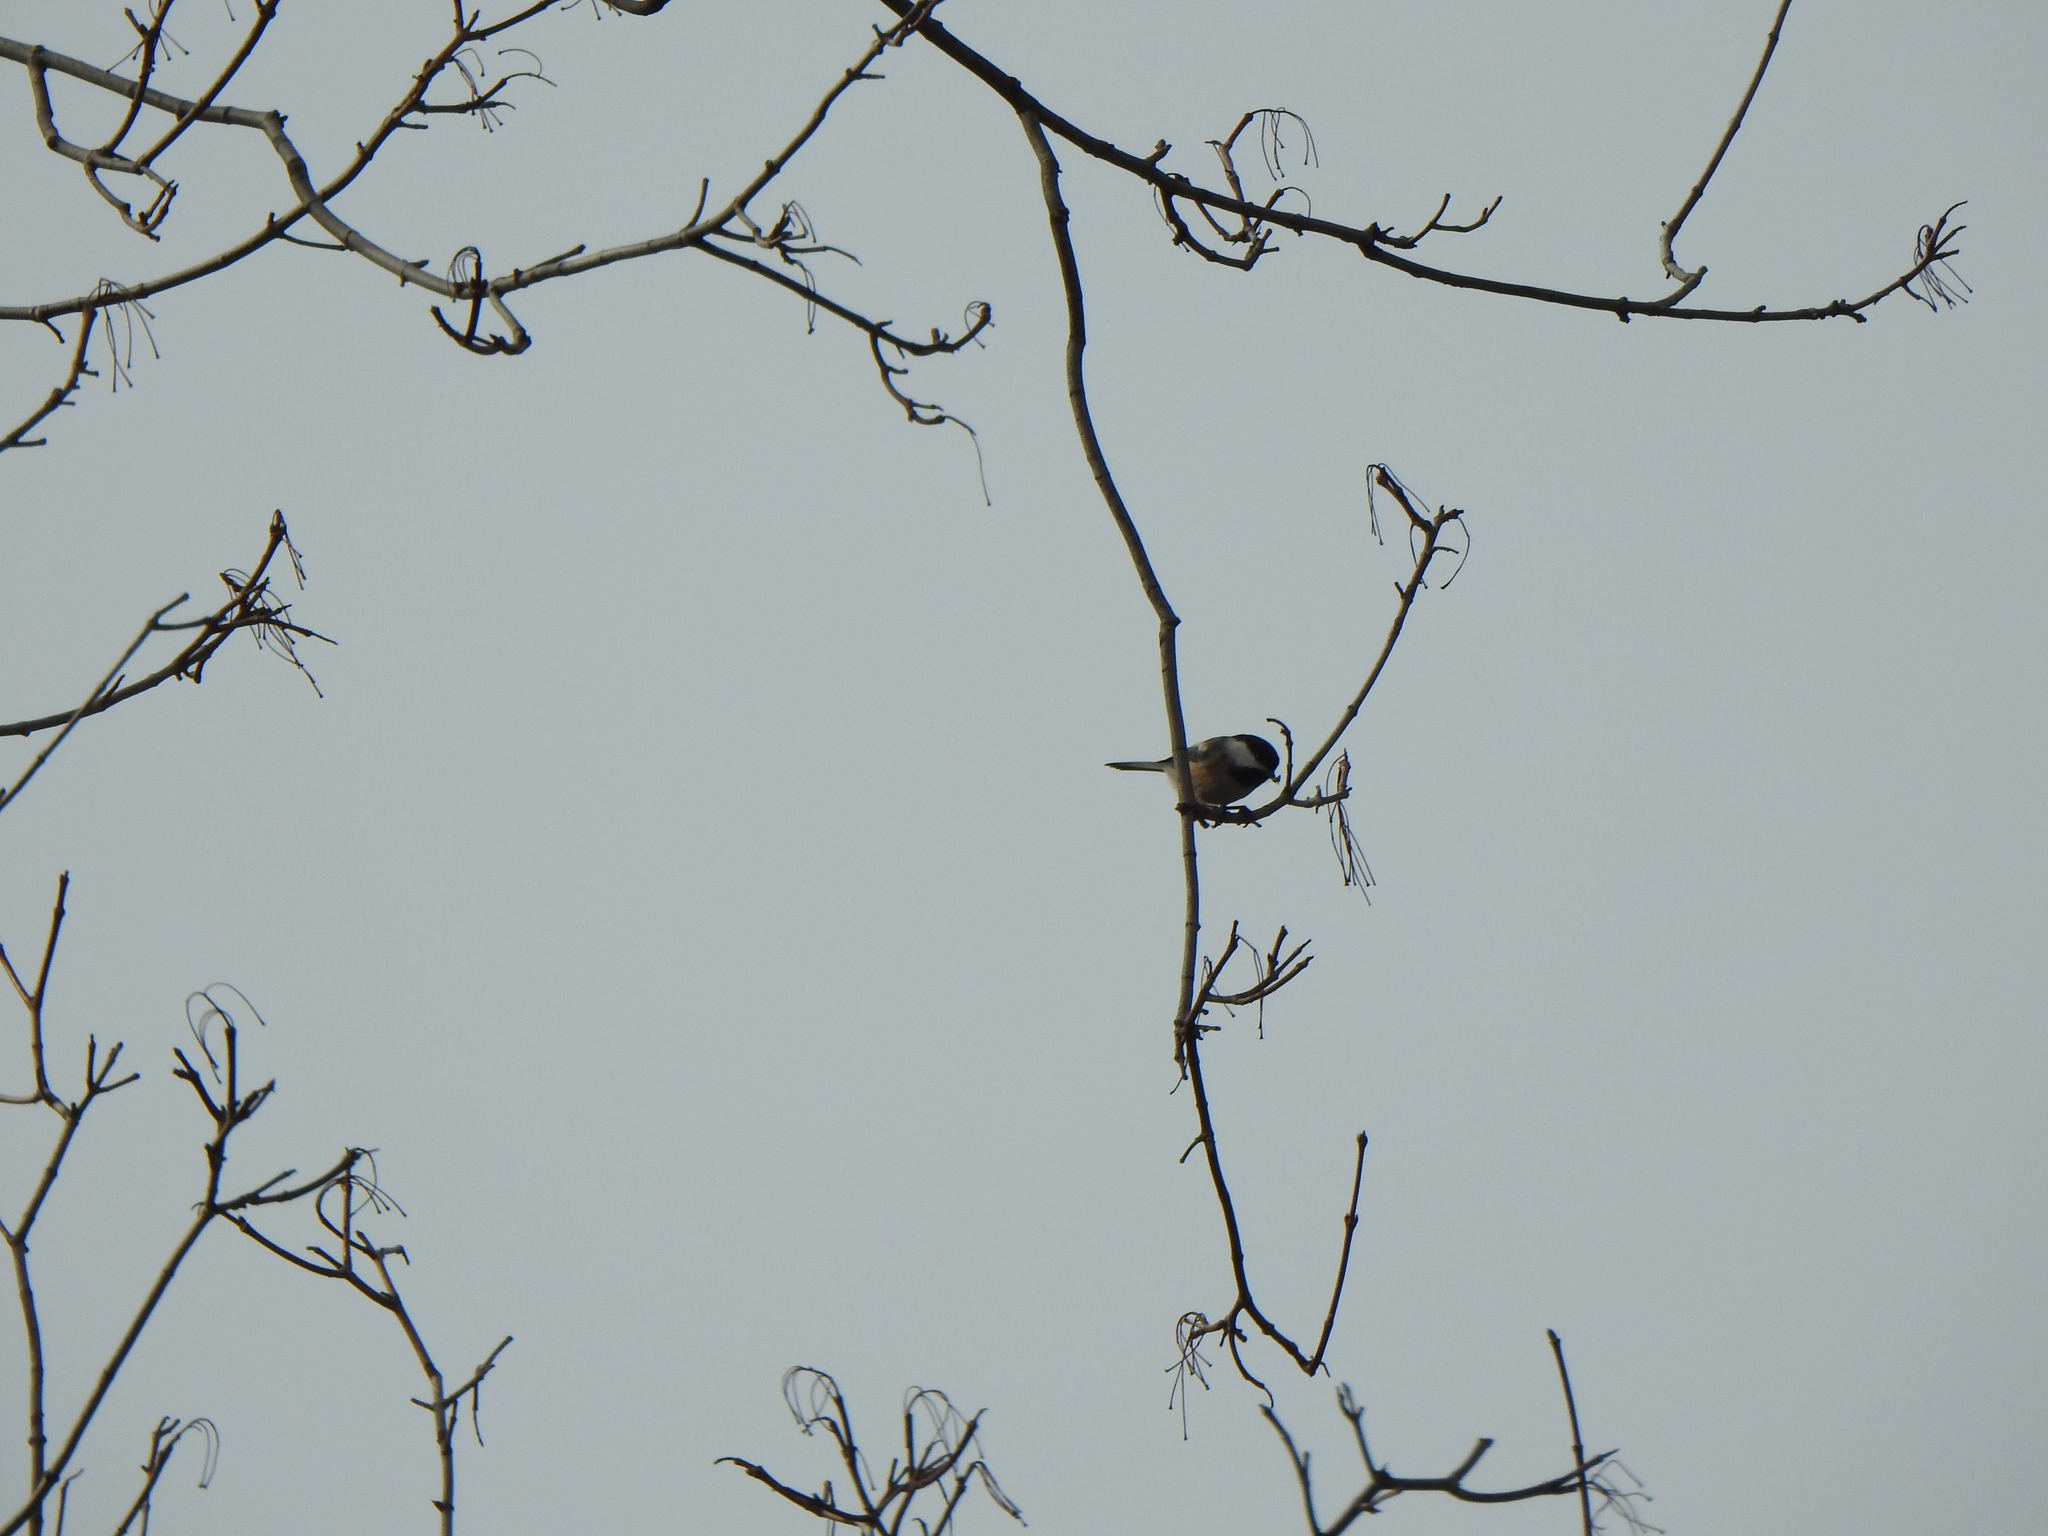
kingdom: Animalia
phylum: Chordata
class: Aves
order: Passeriformes
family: Paridae
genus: Poecile
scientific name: Poecile atricapillus
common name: Black-capped chickadee
